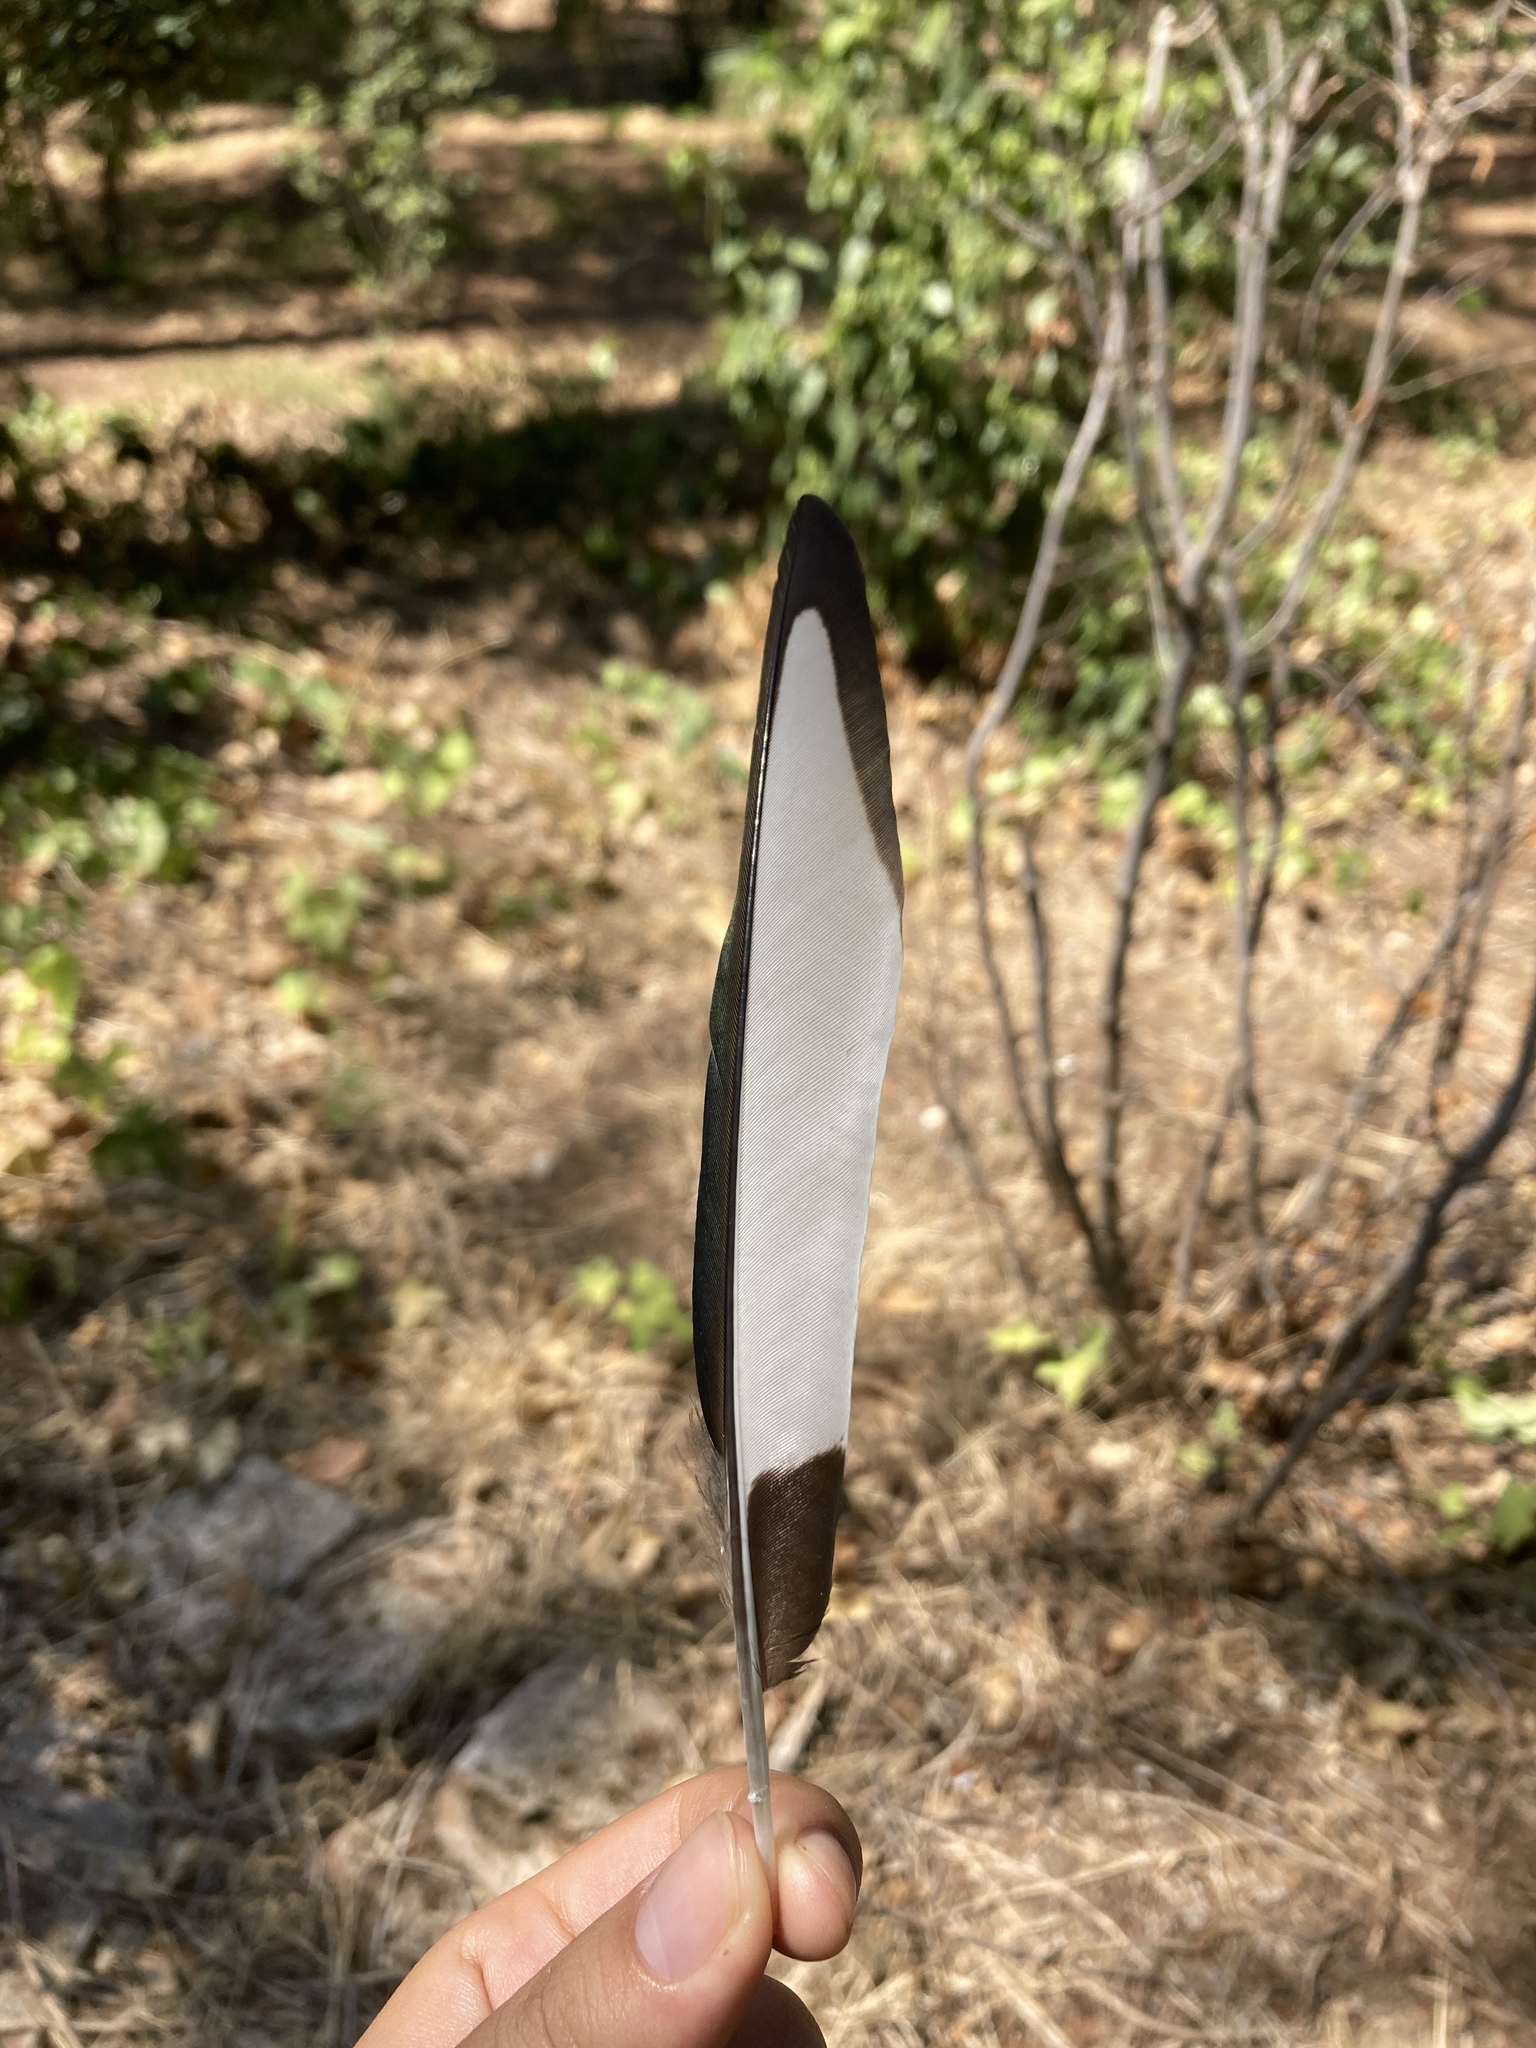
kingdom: Animalia
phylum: Chordata
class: Aves
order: Passeriformes
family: Corvidae
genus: Pica
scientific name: Pica pica
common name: Eurasian magpie
